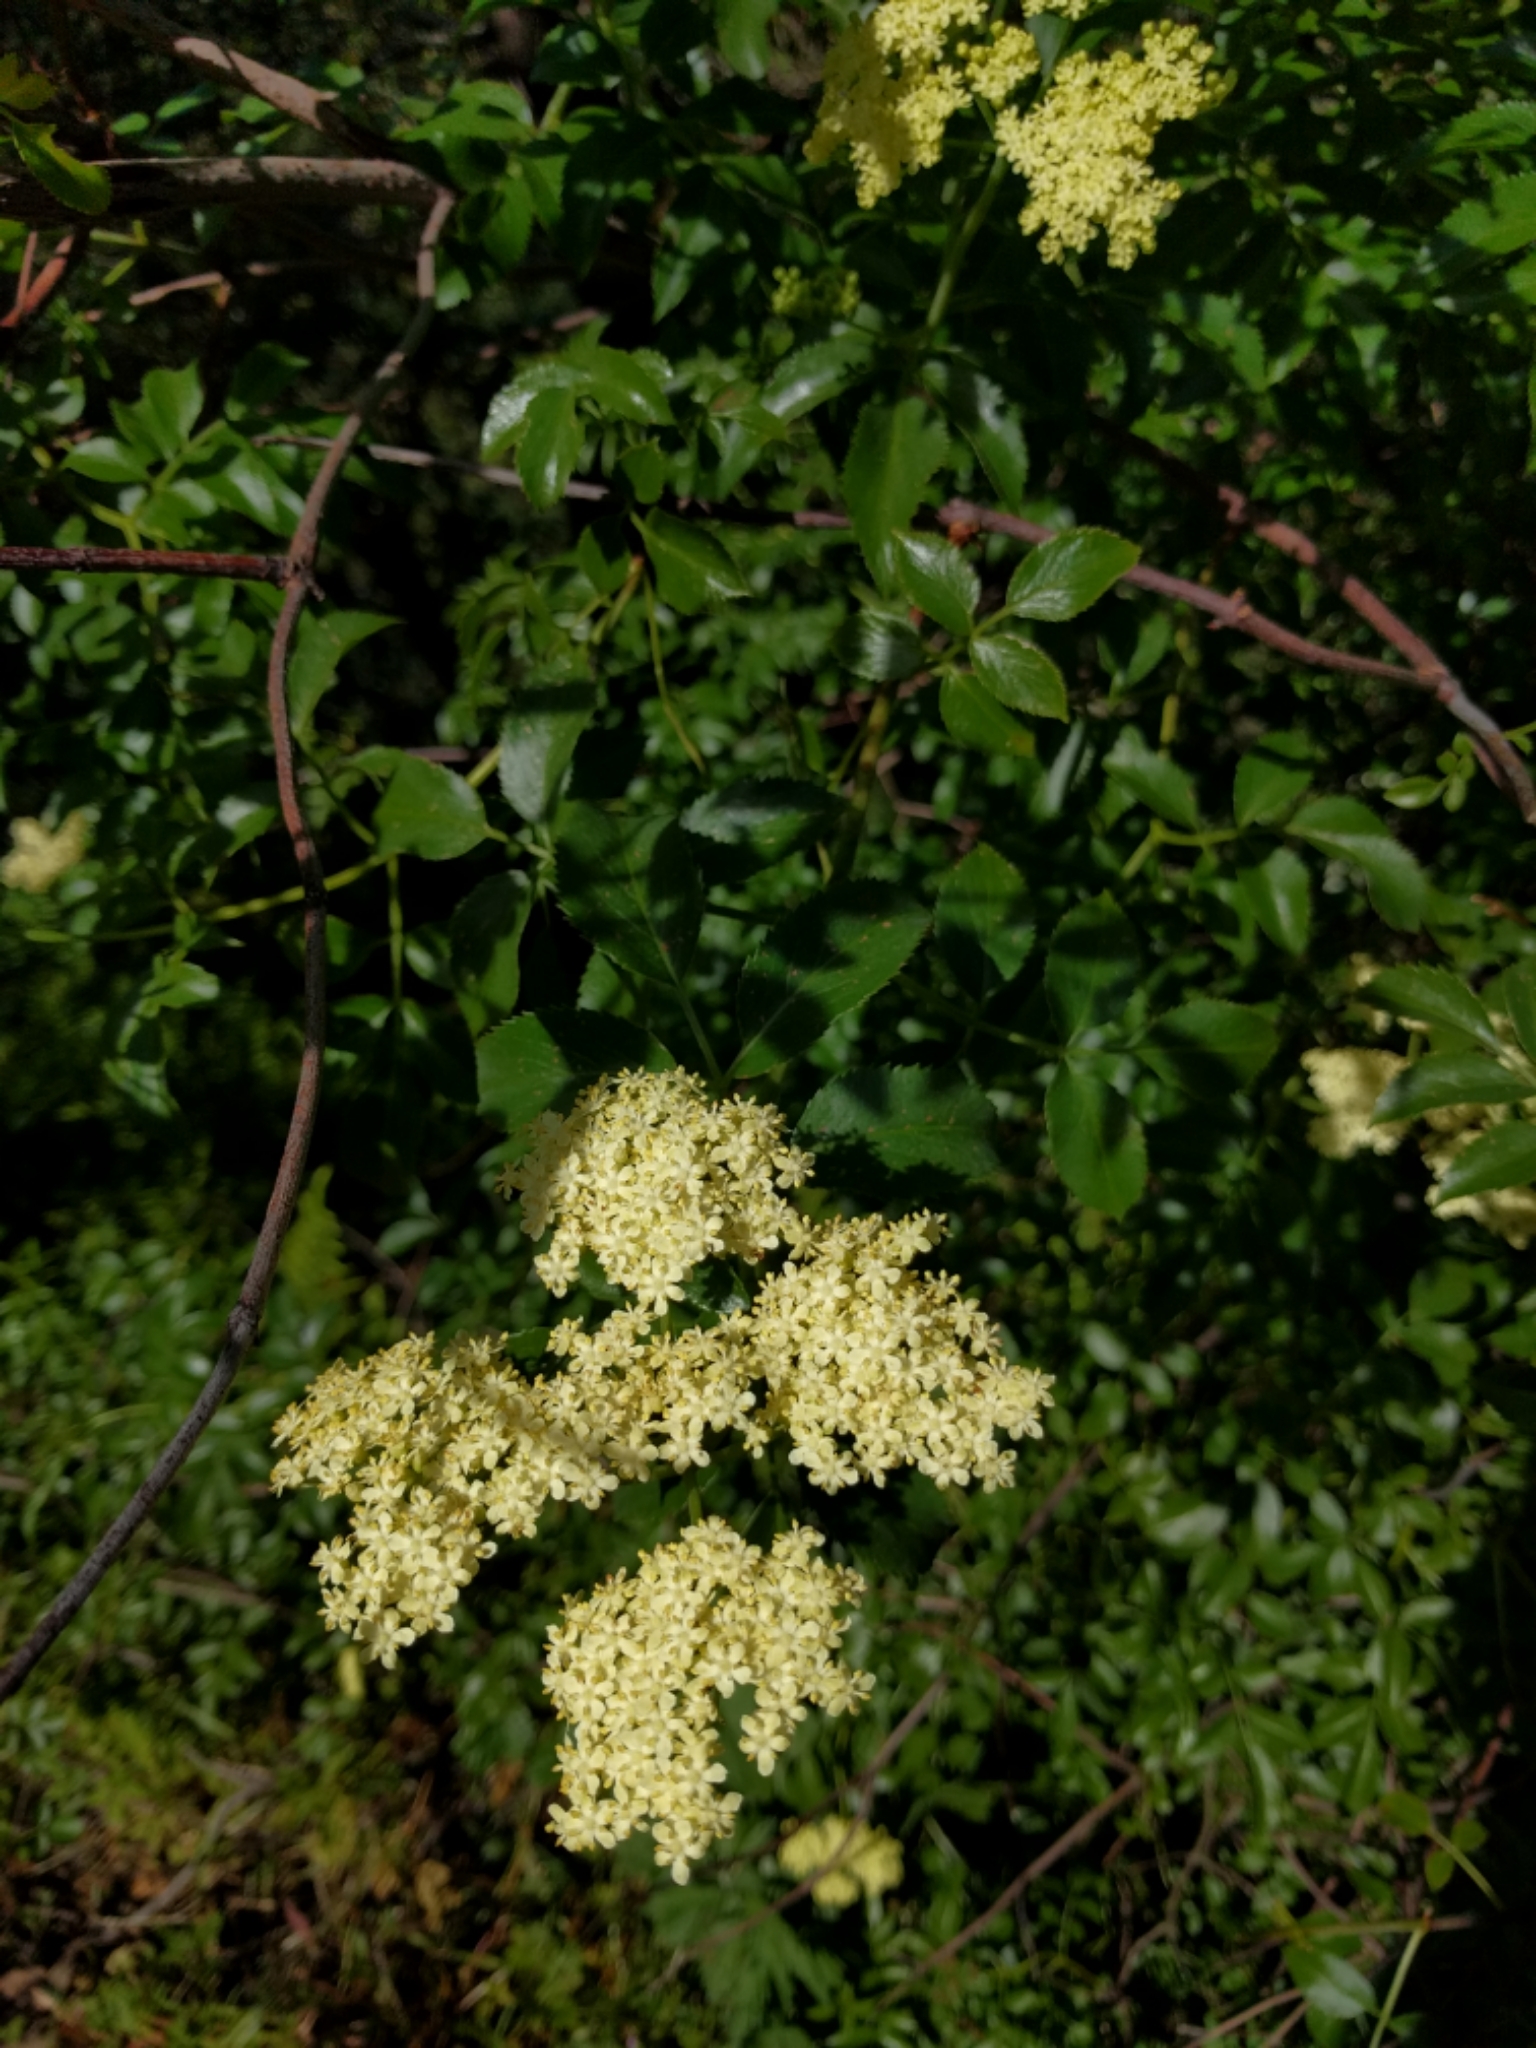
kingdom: Plantae
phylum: Tracheophyta
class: Magnoliopsida
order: Dipsacales
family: Viburnaceae
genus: Sambucus
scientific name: Sambucus cerulea
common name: Blue elder
